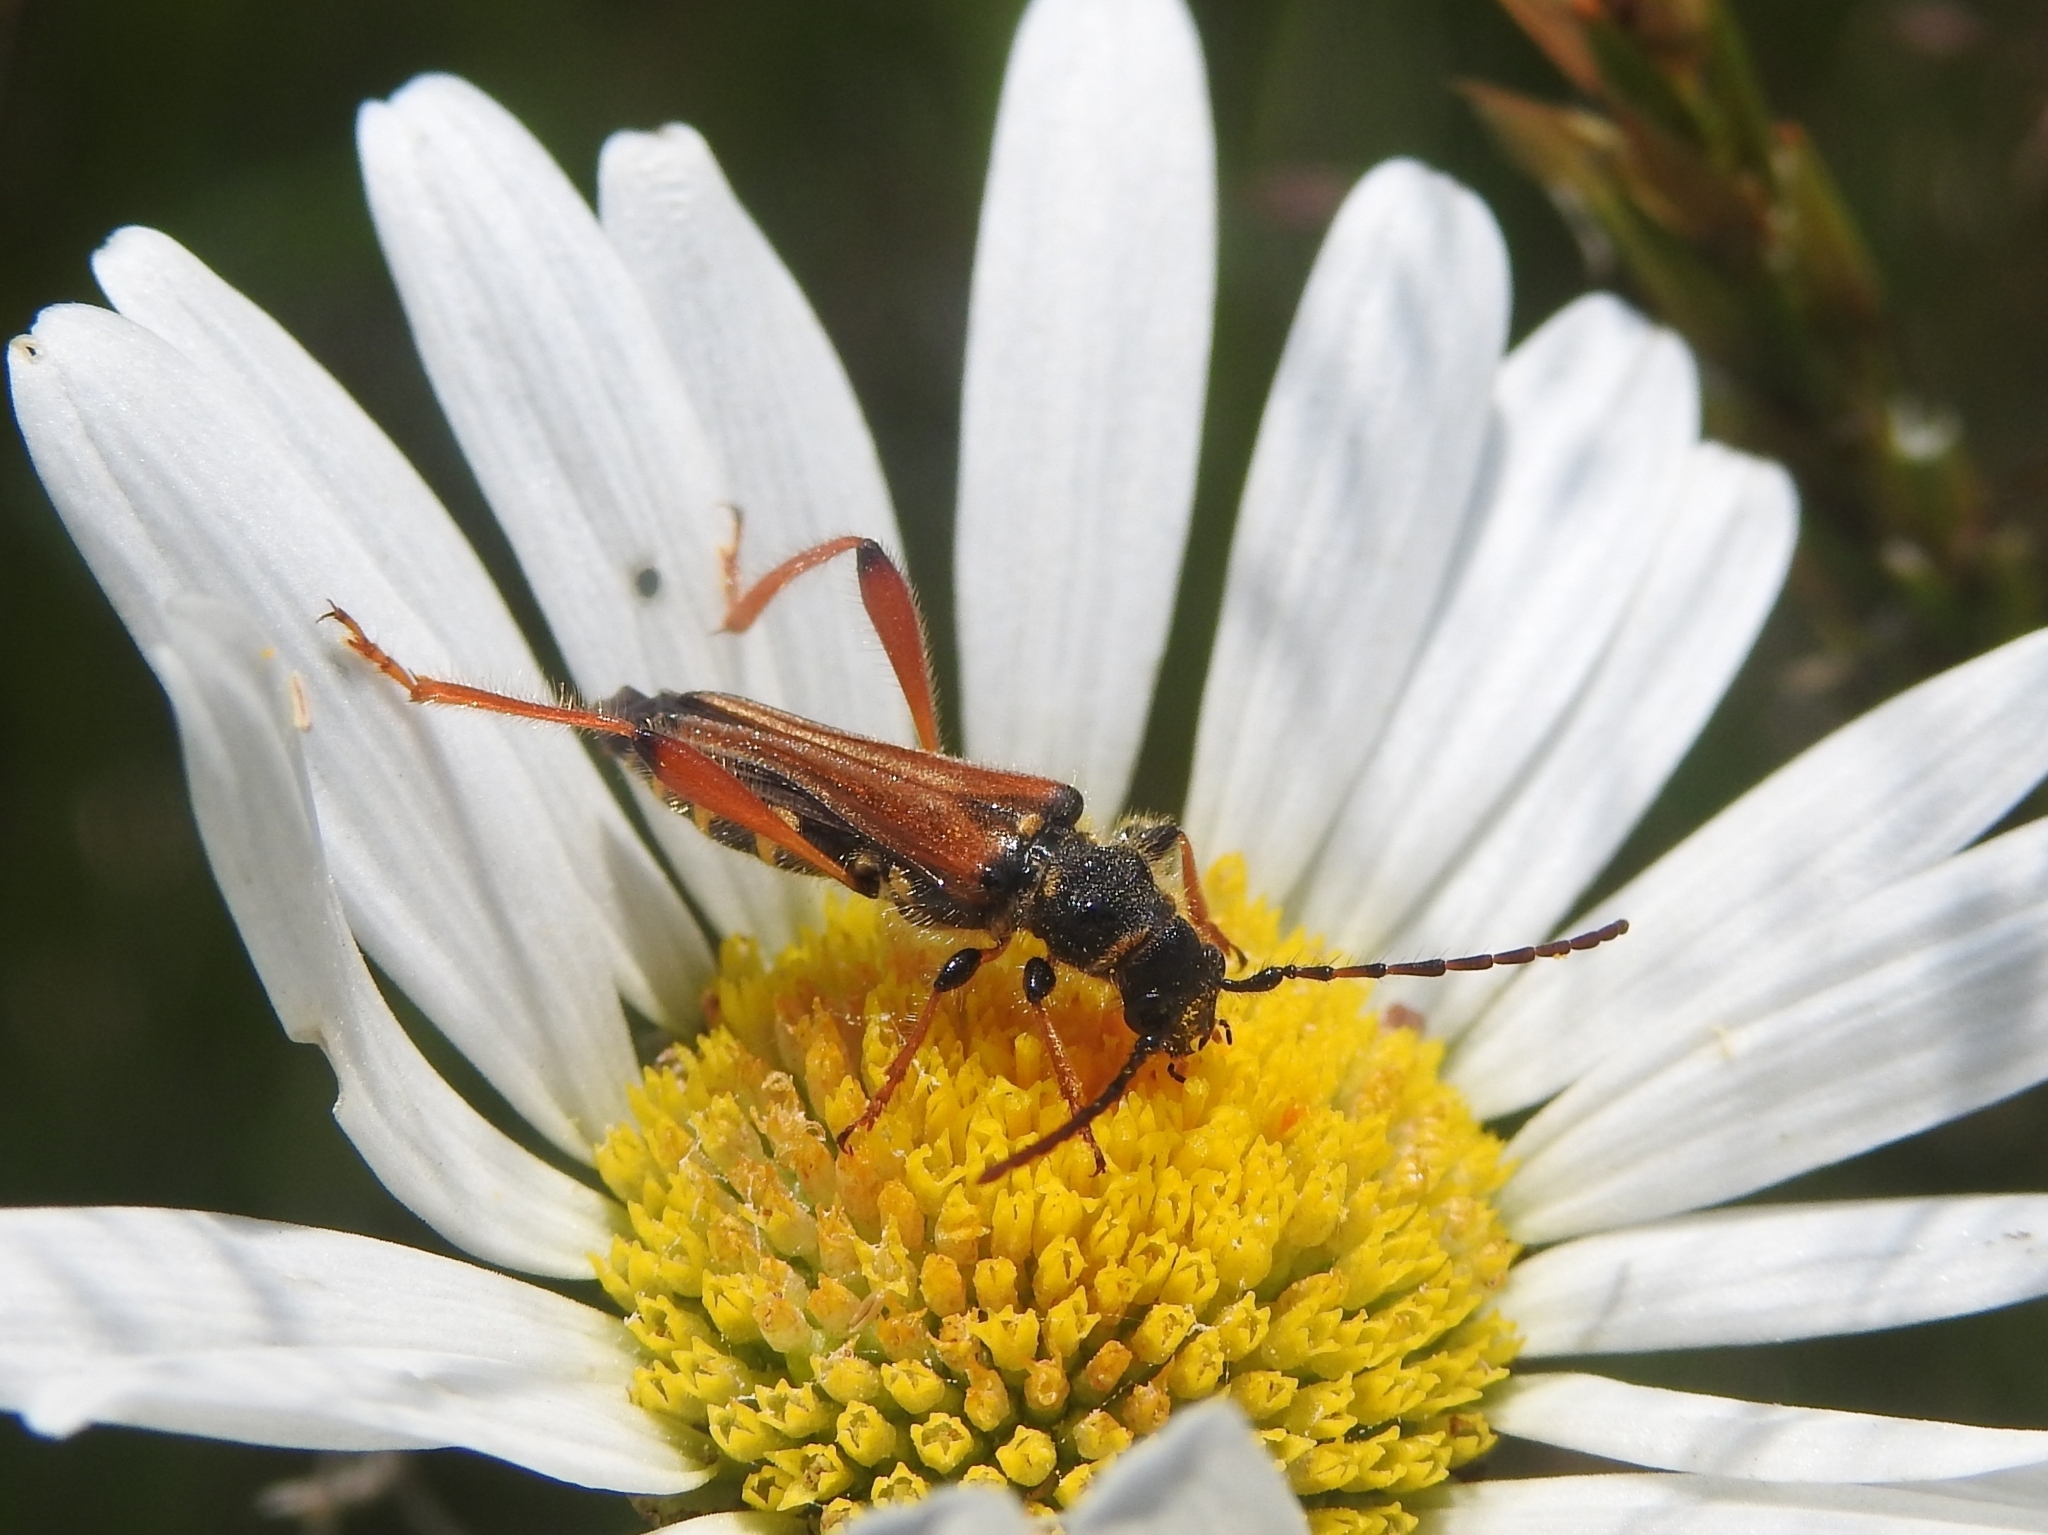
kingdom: Animalia
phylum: Arthropoda
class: Insecta
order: Coleoptera
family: Cerambycidae
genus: Stenopterus
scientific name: Stenopterus rufus
